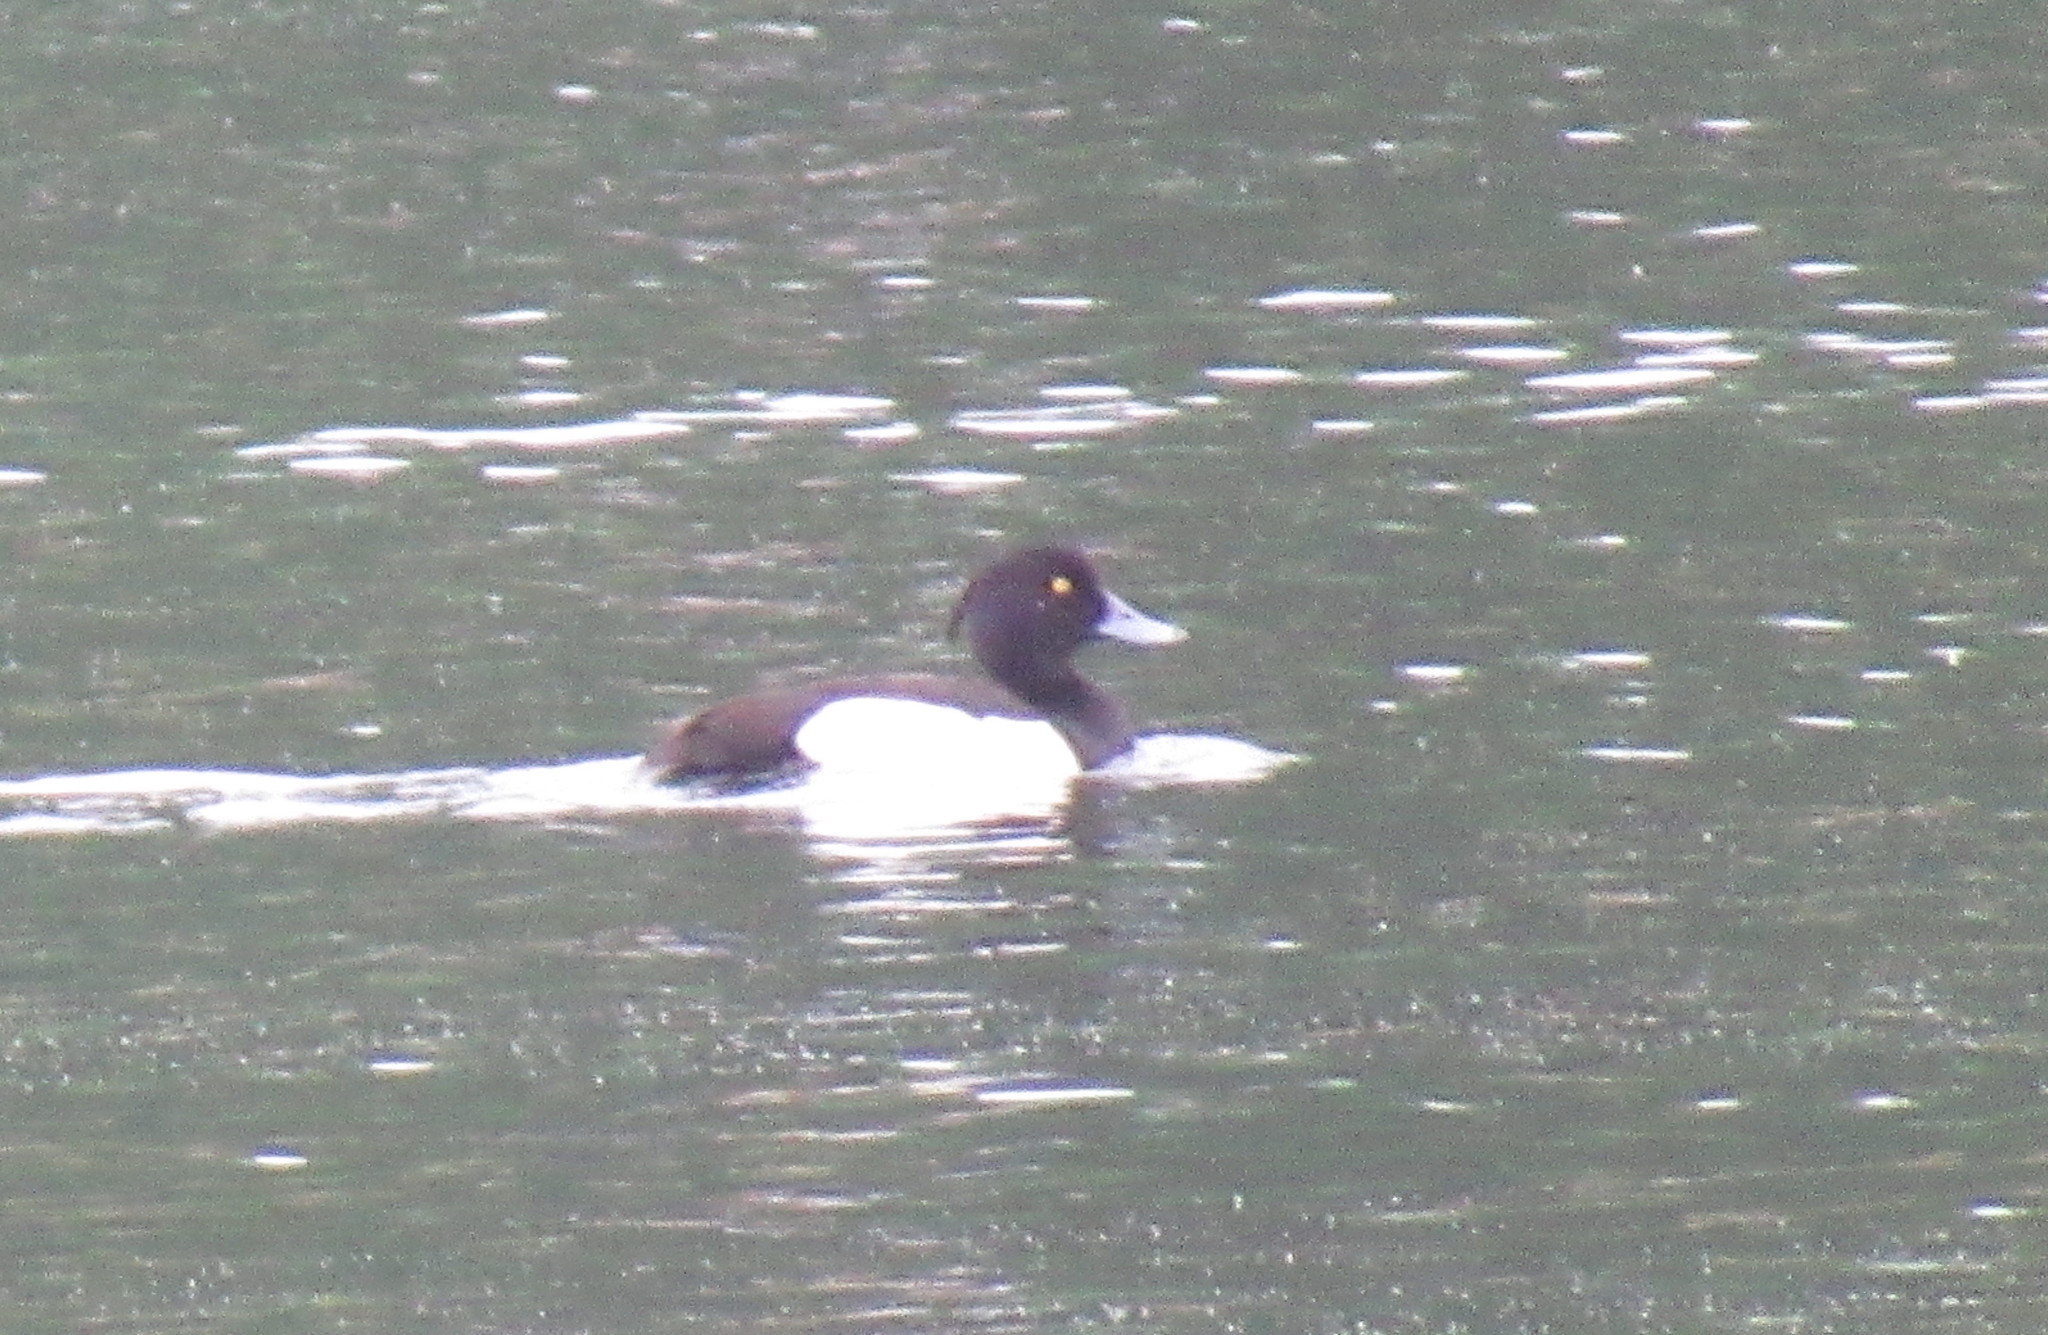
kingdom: Animalia
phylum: Chordata
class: Aves
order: Anseriformes
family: Anatidae
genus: Aythya
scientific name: Aythya fuligula
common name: Tufted duck
